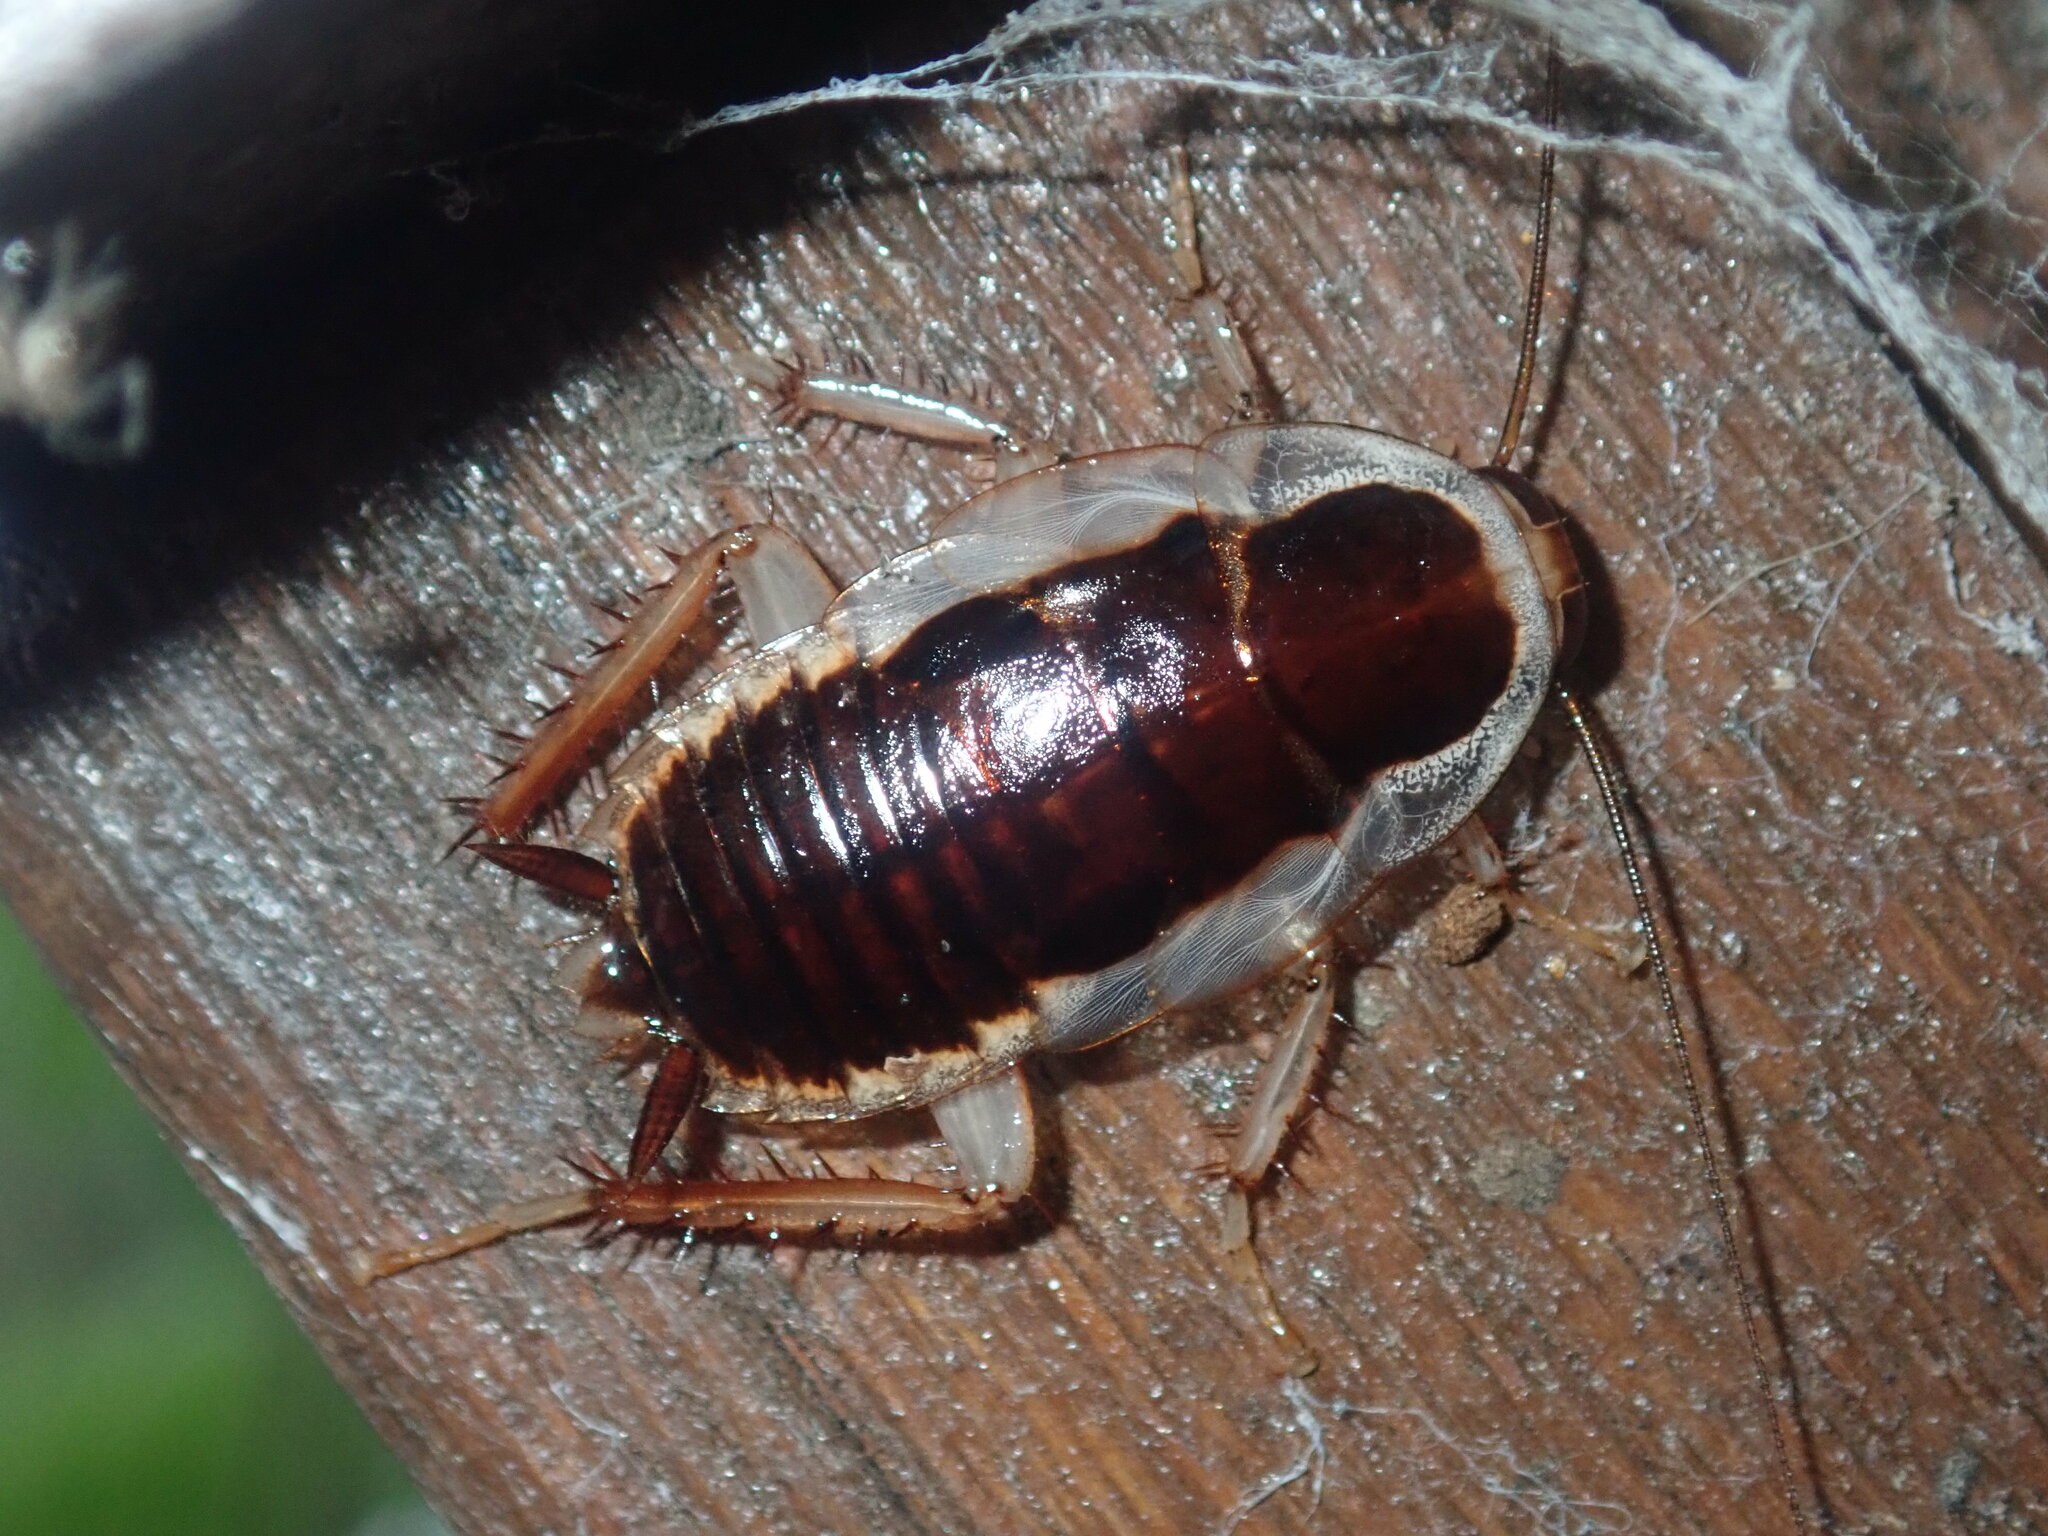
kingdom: Animalia
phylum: Arthropoda
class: Insecta
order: Blattodea
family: Blattidae
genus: Methana
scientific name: Methana parva
